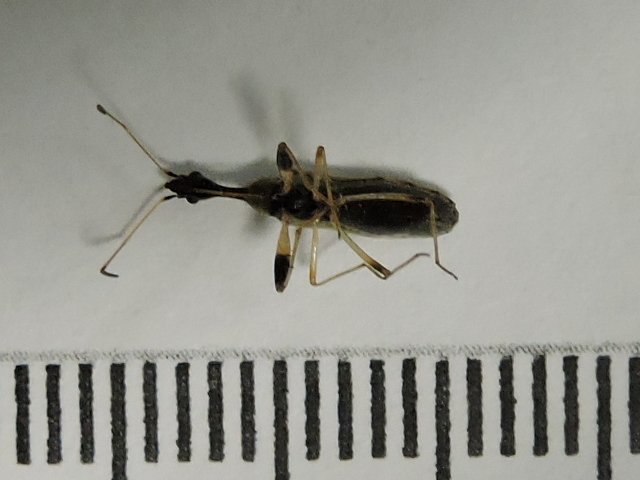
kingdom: Animalia
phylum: Arthropoda
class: Insecta
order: Hemiptera
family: Rhyparochromidae
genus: Myodocha
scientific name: Myodocha serripes
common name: Long-necked seed bug
